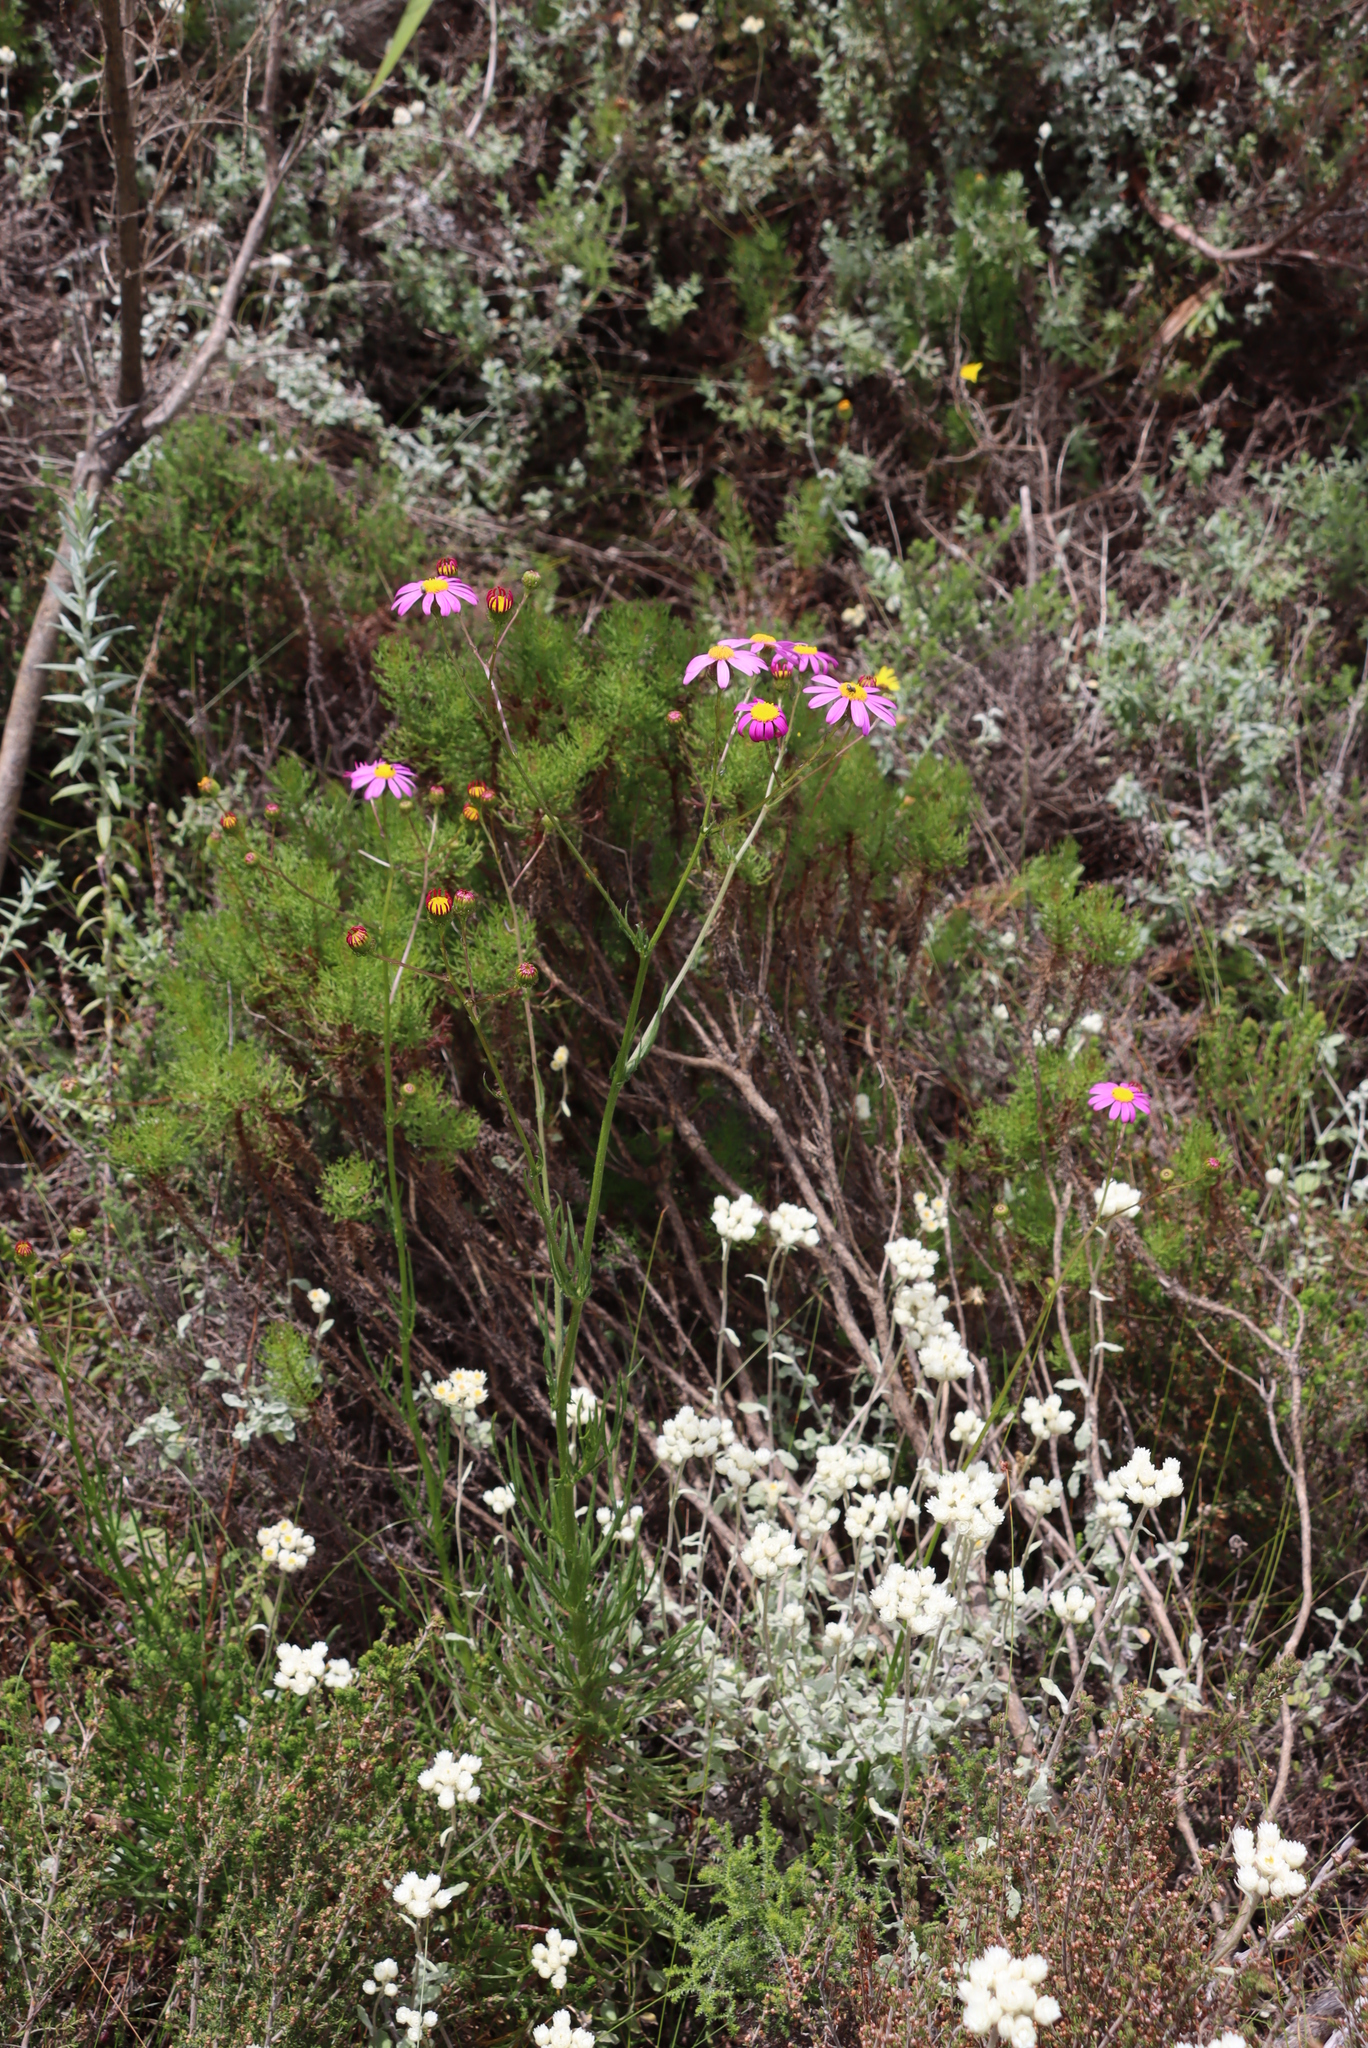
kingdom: Plantae
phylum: Tracheophyta
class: Magnoliopsida
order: Asterales
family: Asteraceae
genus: Senecio
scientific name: Senecio umbellatus
